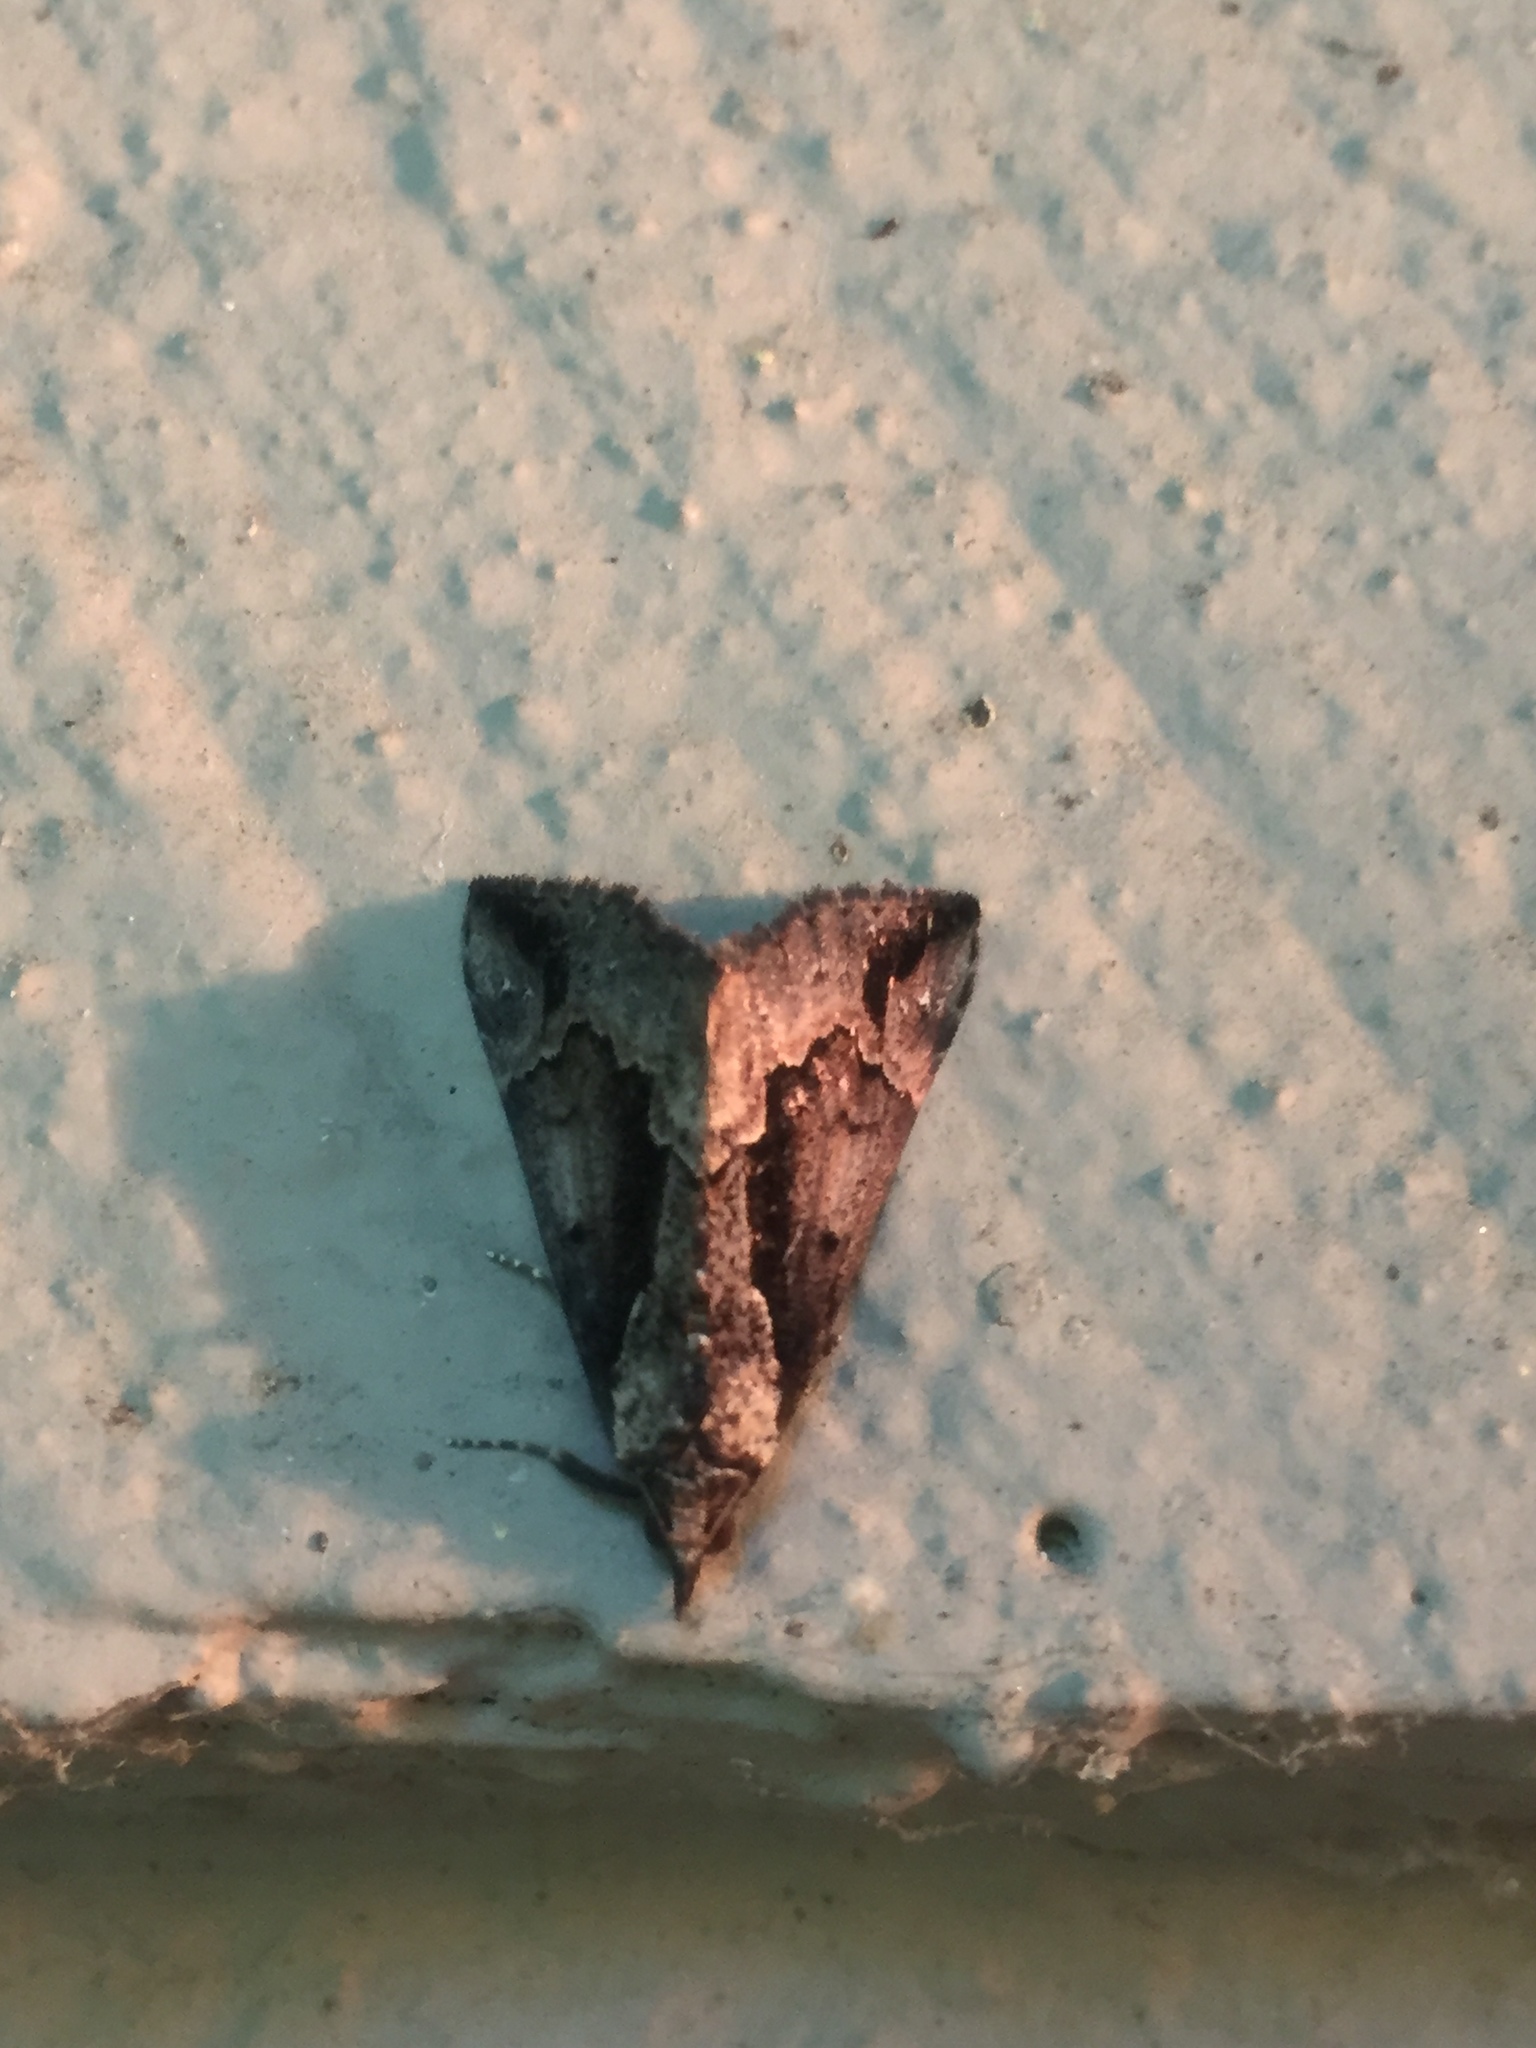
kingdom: Animalia
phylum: Arthropoda
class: Insecta
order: Lepidoptera
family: Erebidae
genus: Hypena
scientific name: Hypena baltimoralis
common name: Baltimore snout
